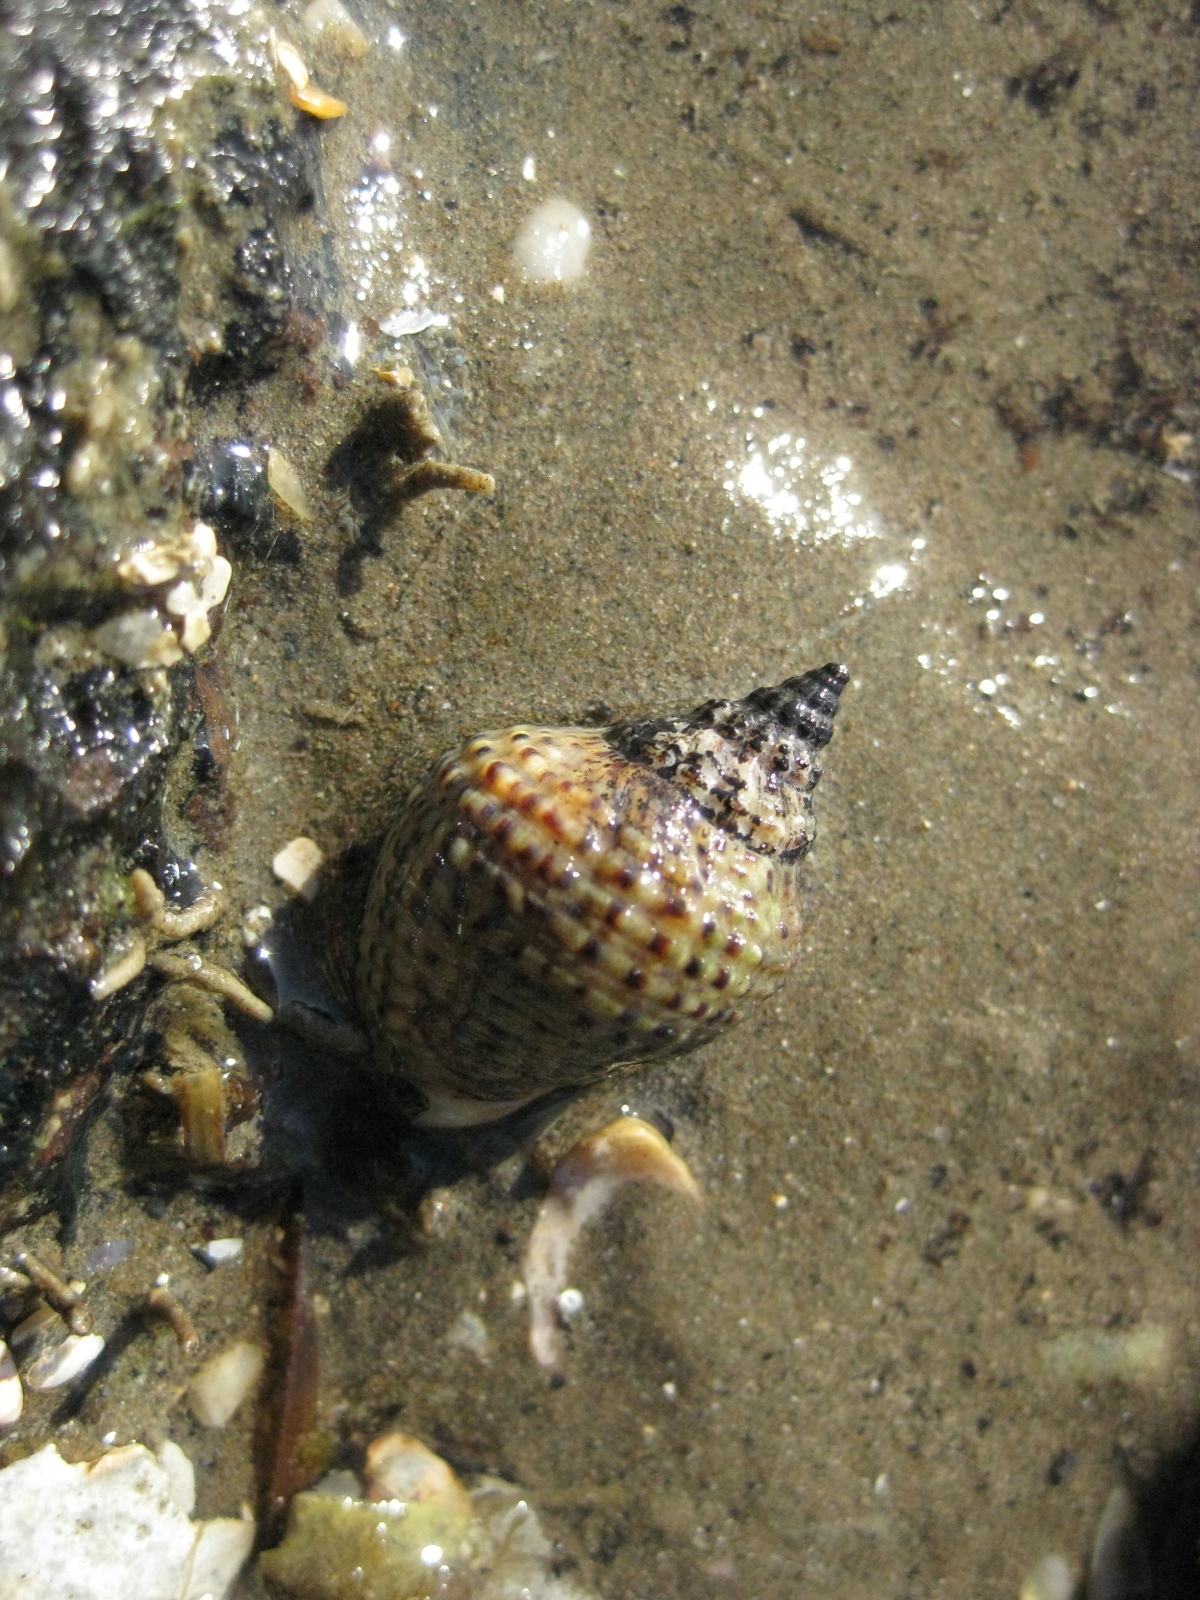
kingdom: Animalia
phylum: Mollusca
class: Gastropoda
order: Neogastropoda
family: Cominellidae
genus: Cominella
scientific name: Cominella adspersa
